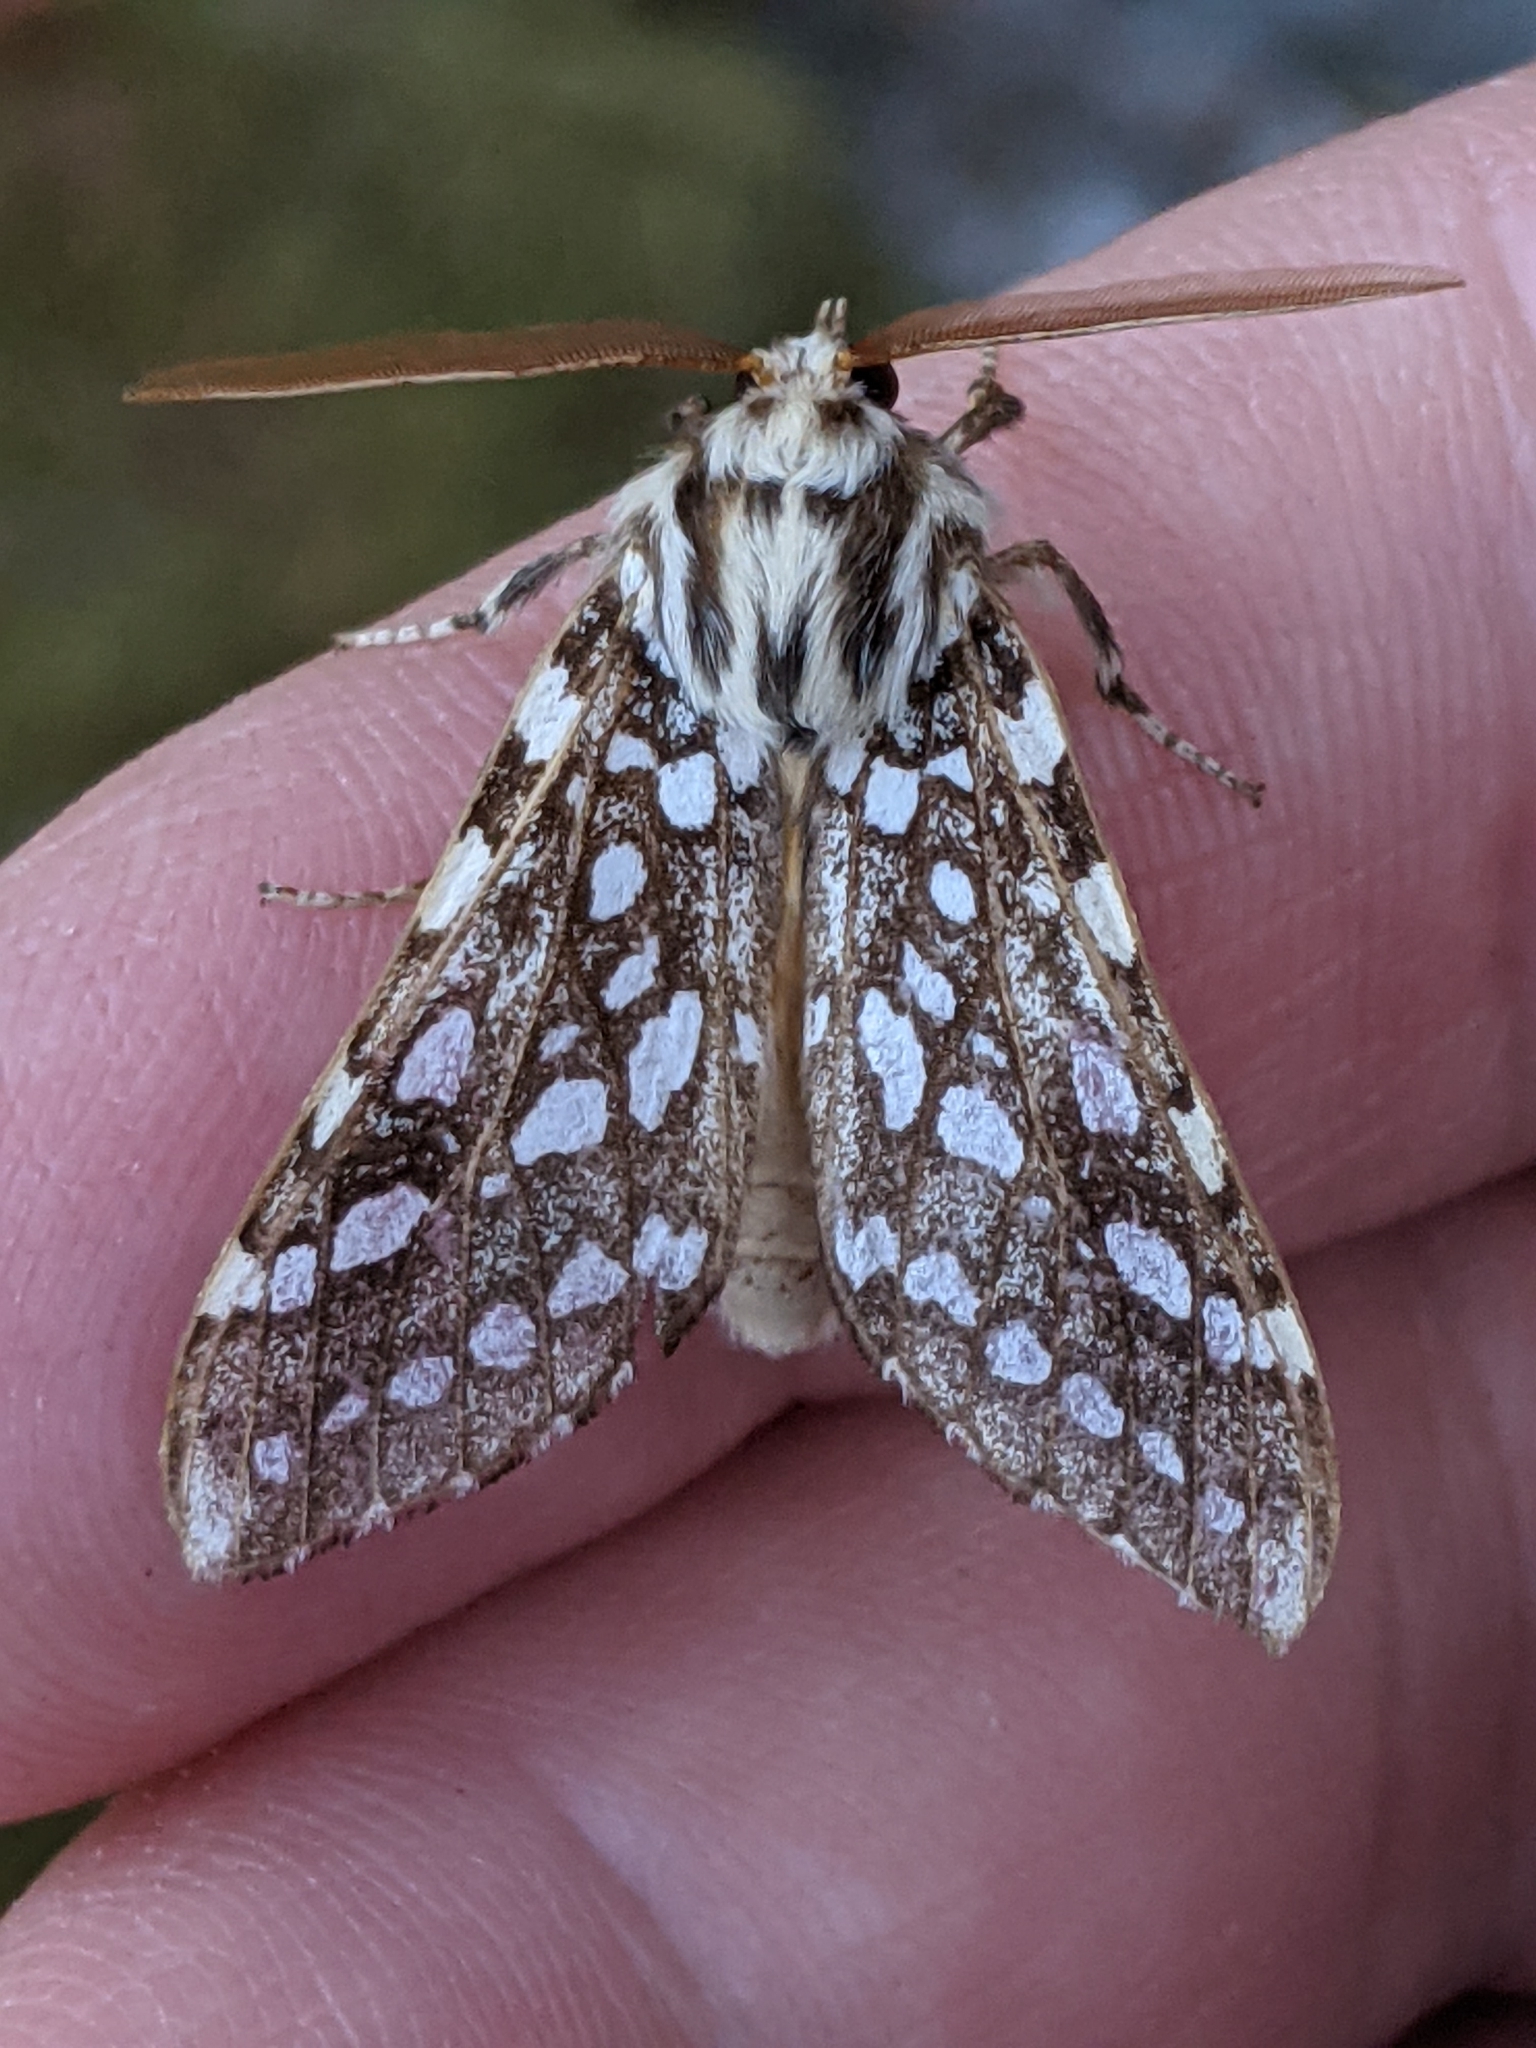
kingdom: Animalia
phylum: Arthropoda
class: Insecta
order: Lepidoptera
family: Erebidae
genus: Lophocampa
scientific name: Lophocampa argentata
